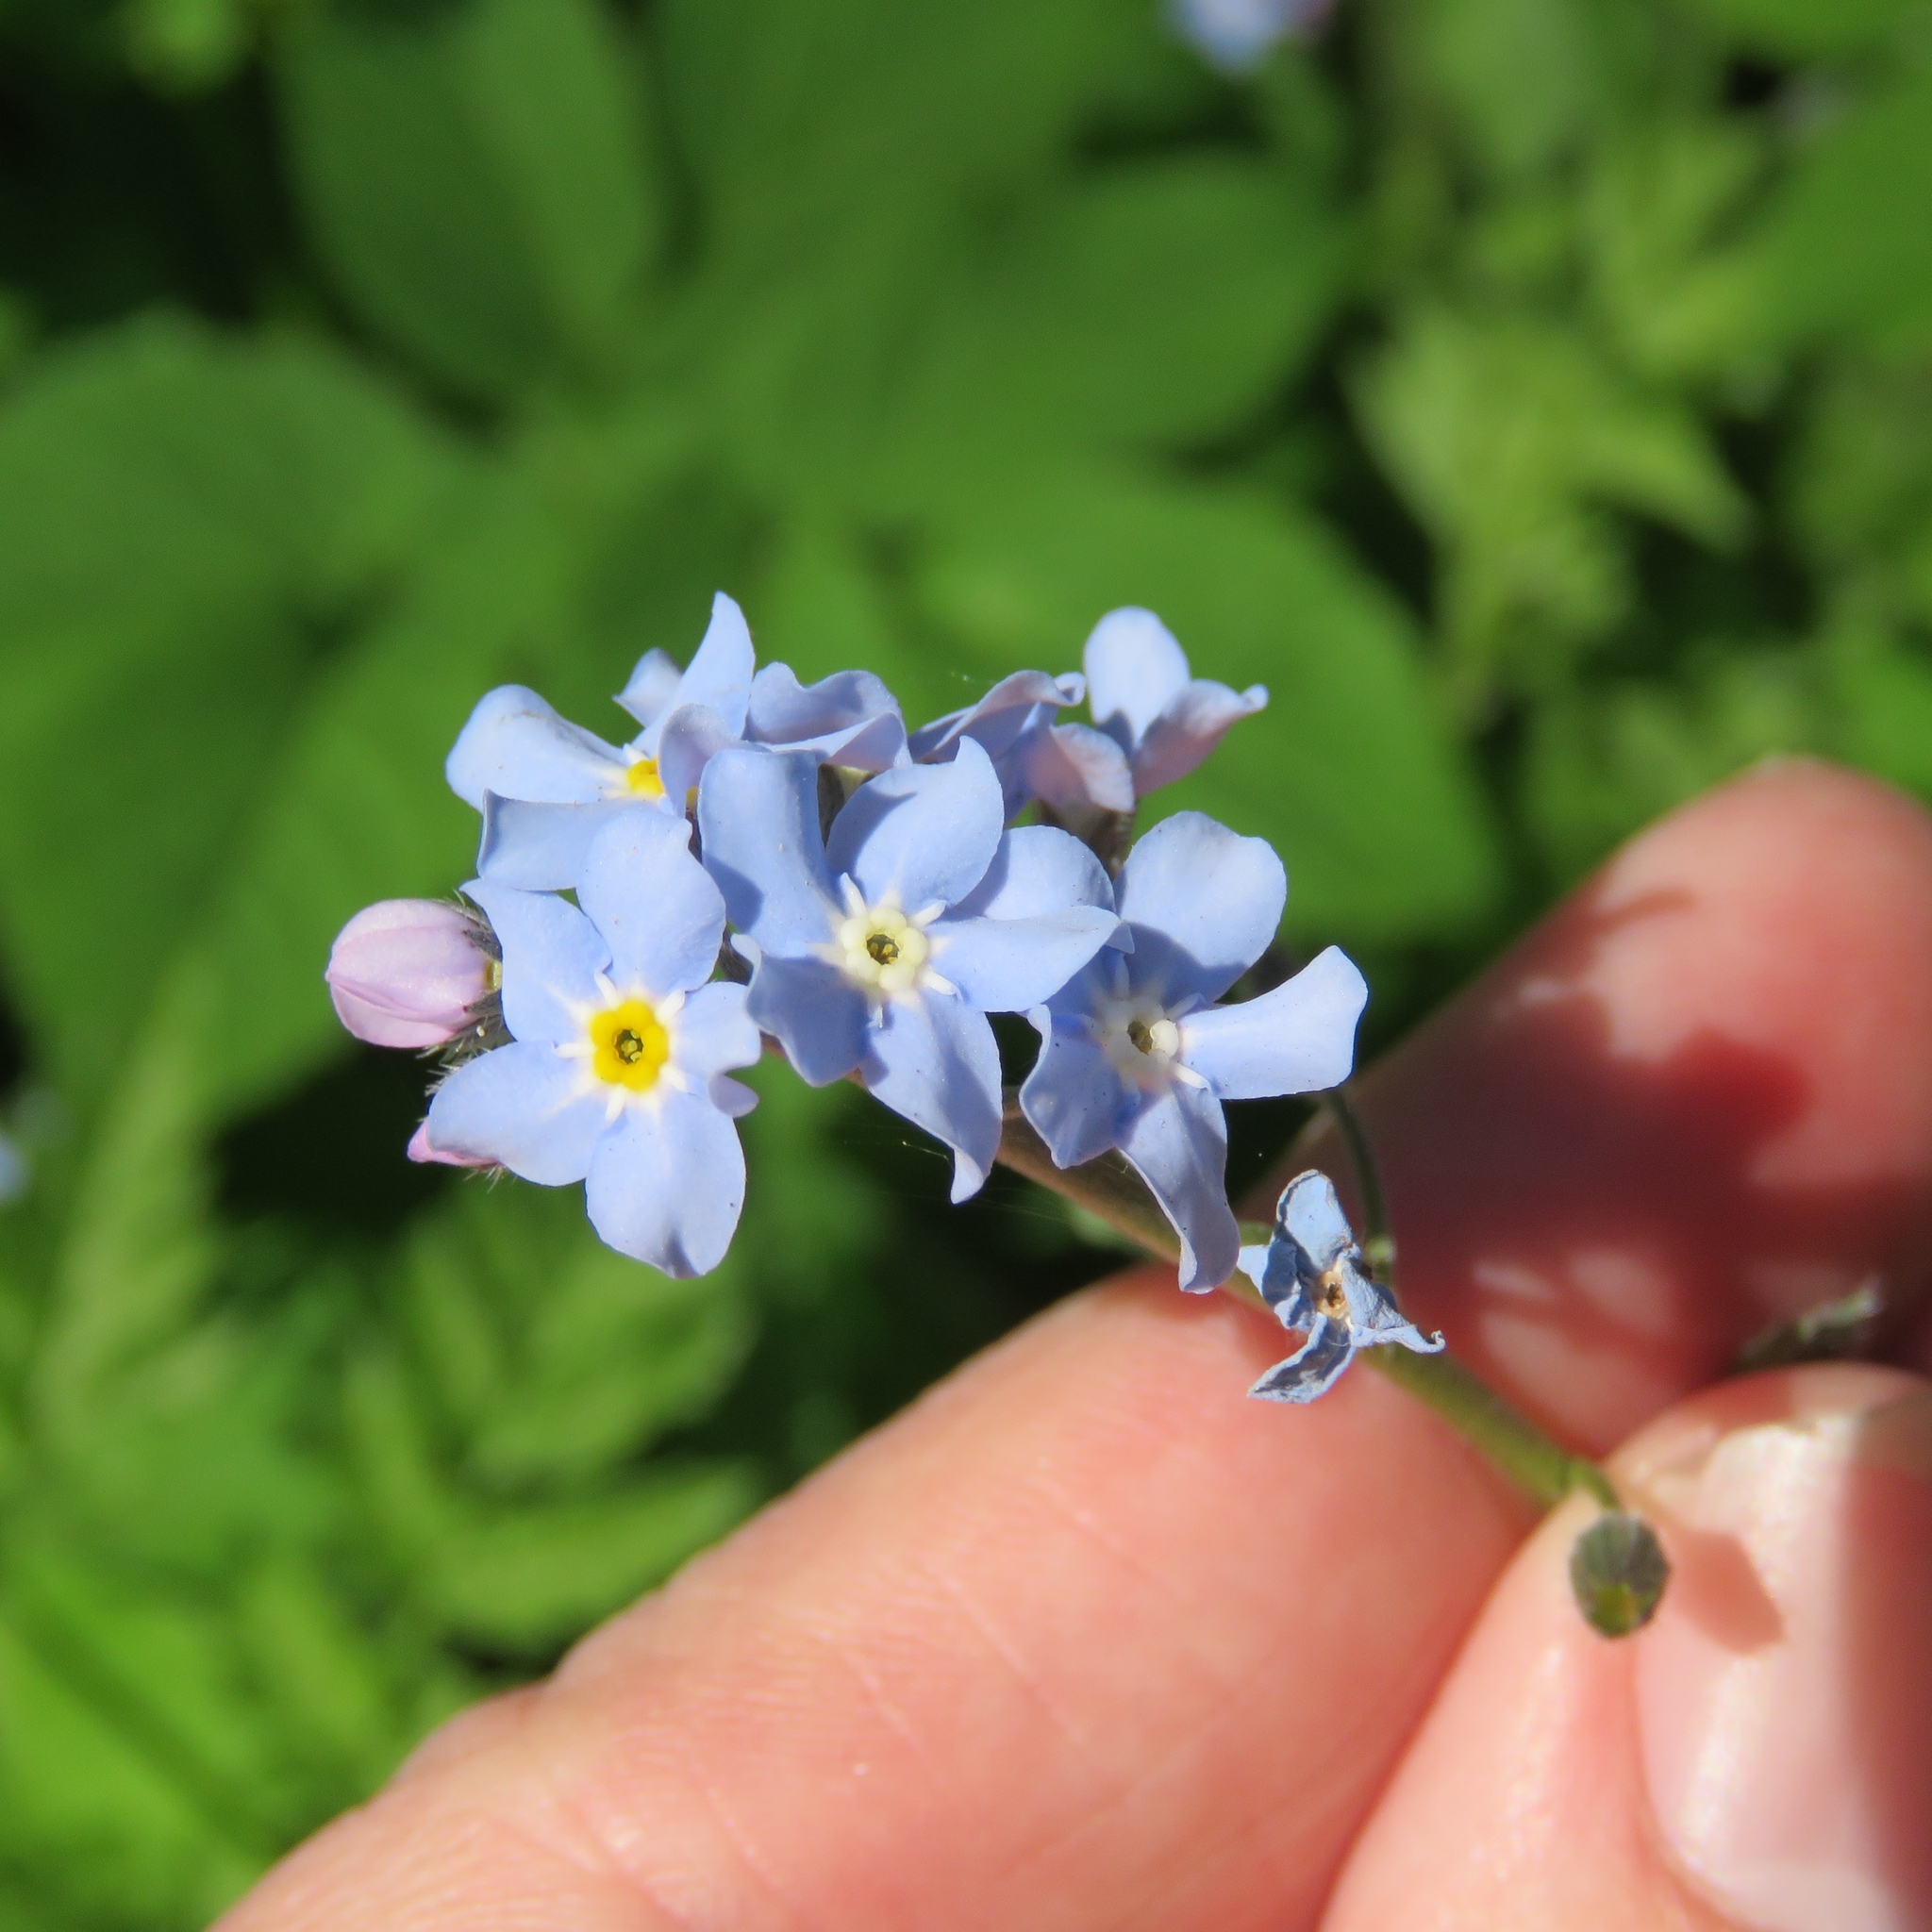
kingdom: Plantae
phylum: Tracheophyta
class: Magnoliopsida
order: Boraginales
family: Boraginaceae
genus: Myosotis
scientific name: Myosotis sylvatica
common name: Wood forget-me-not
